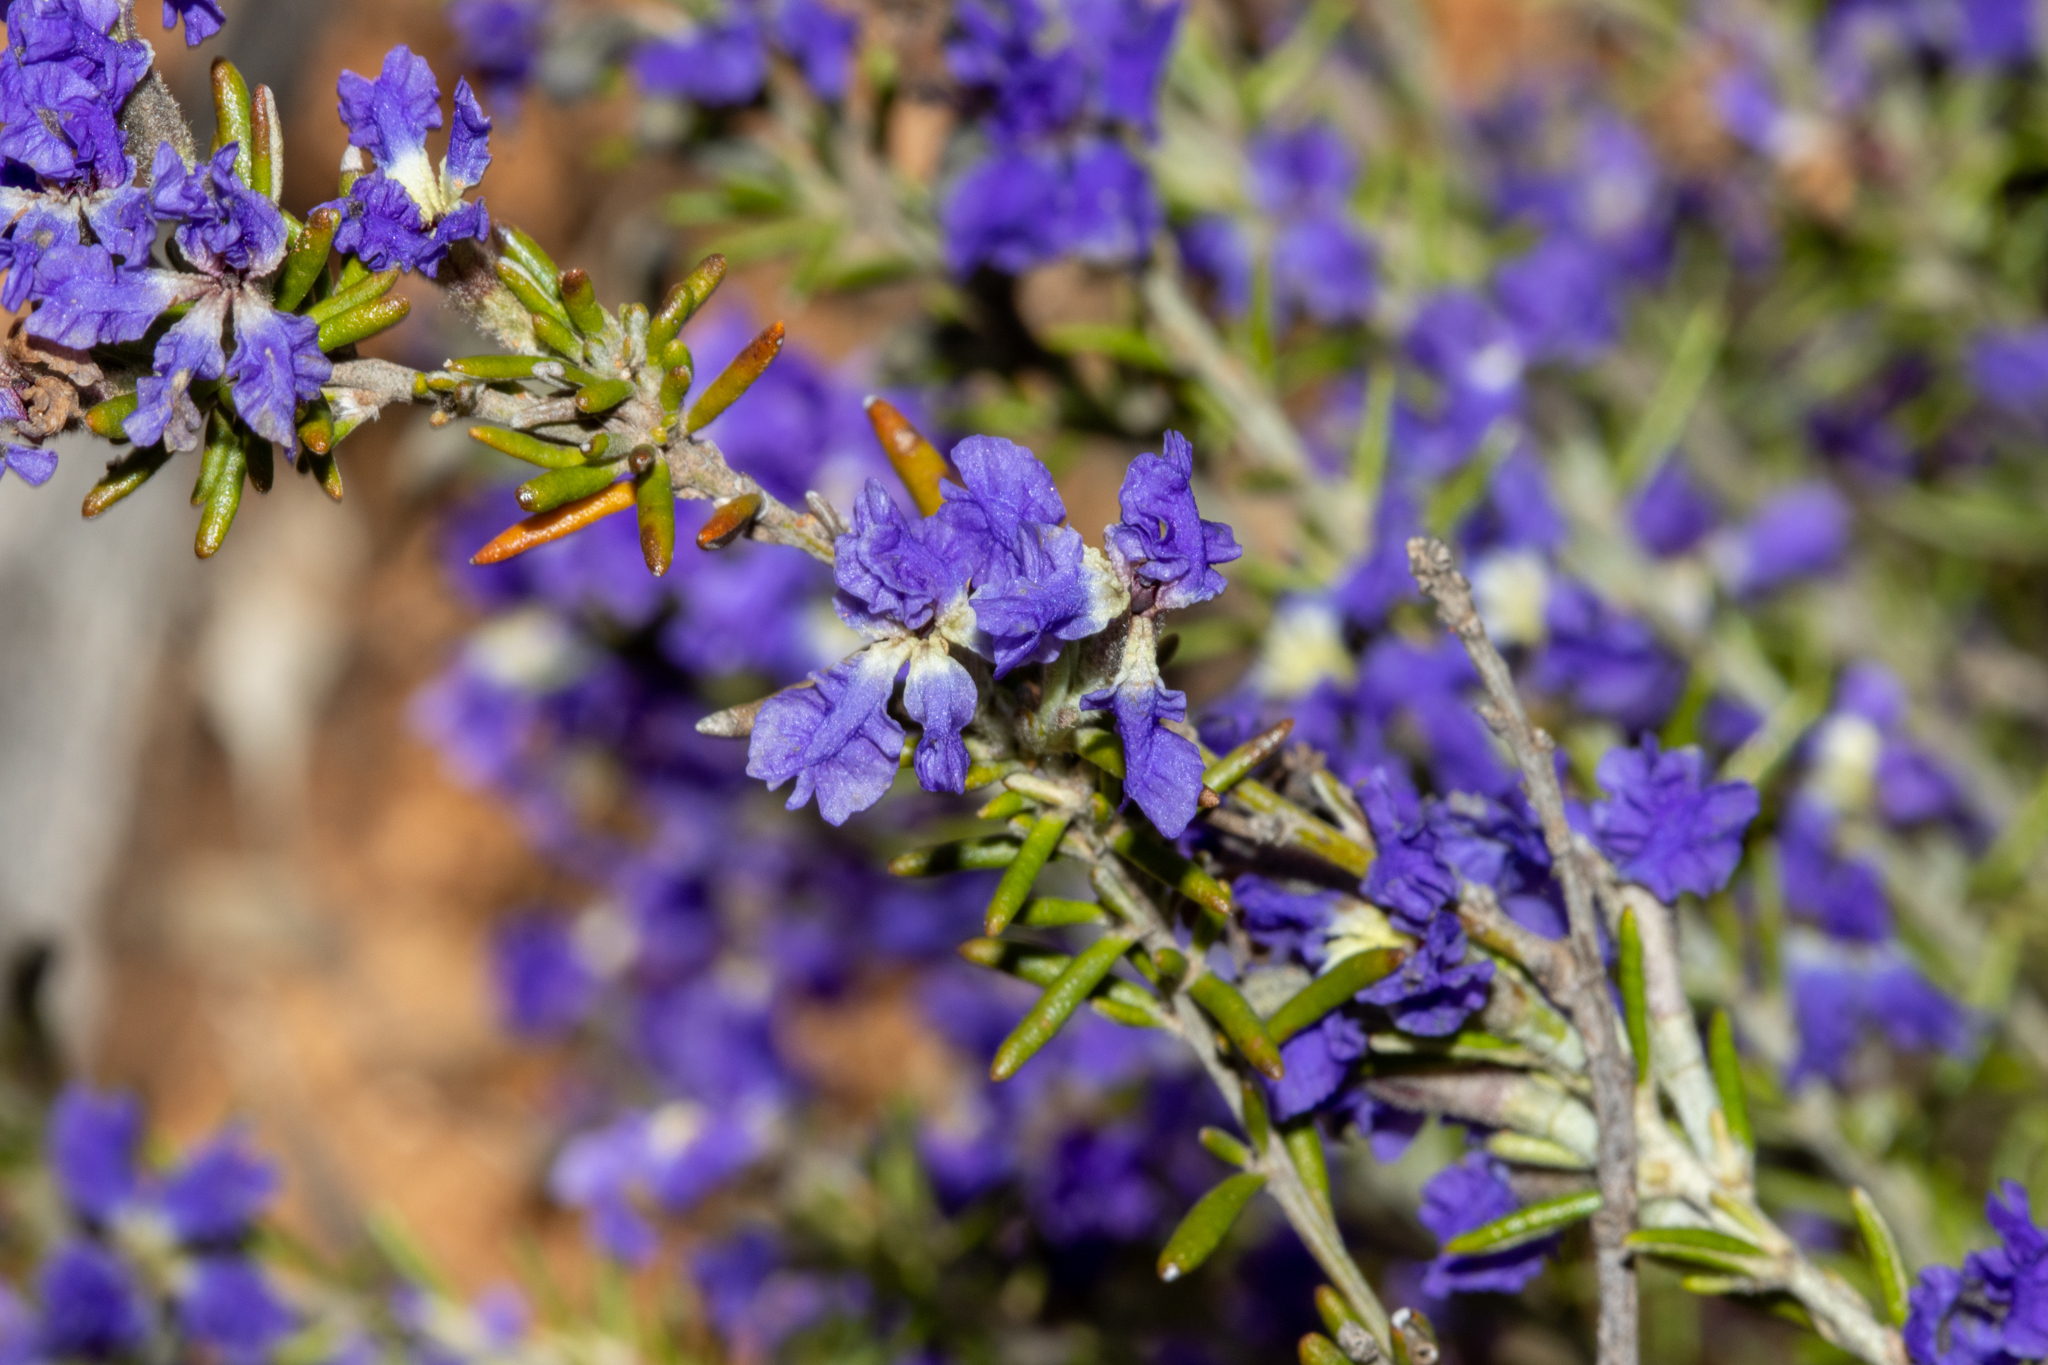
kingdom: Plantae
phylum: Tracheophyta
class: Magnoliopsida
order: Asterales
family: Goodeniaceae
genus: Dampiera
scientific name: Dampiera rosmarinifolia
